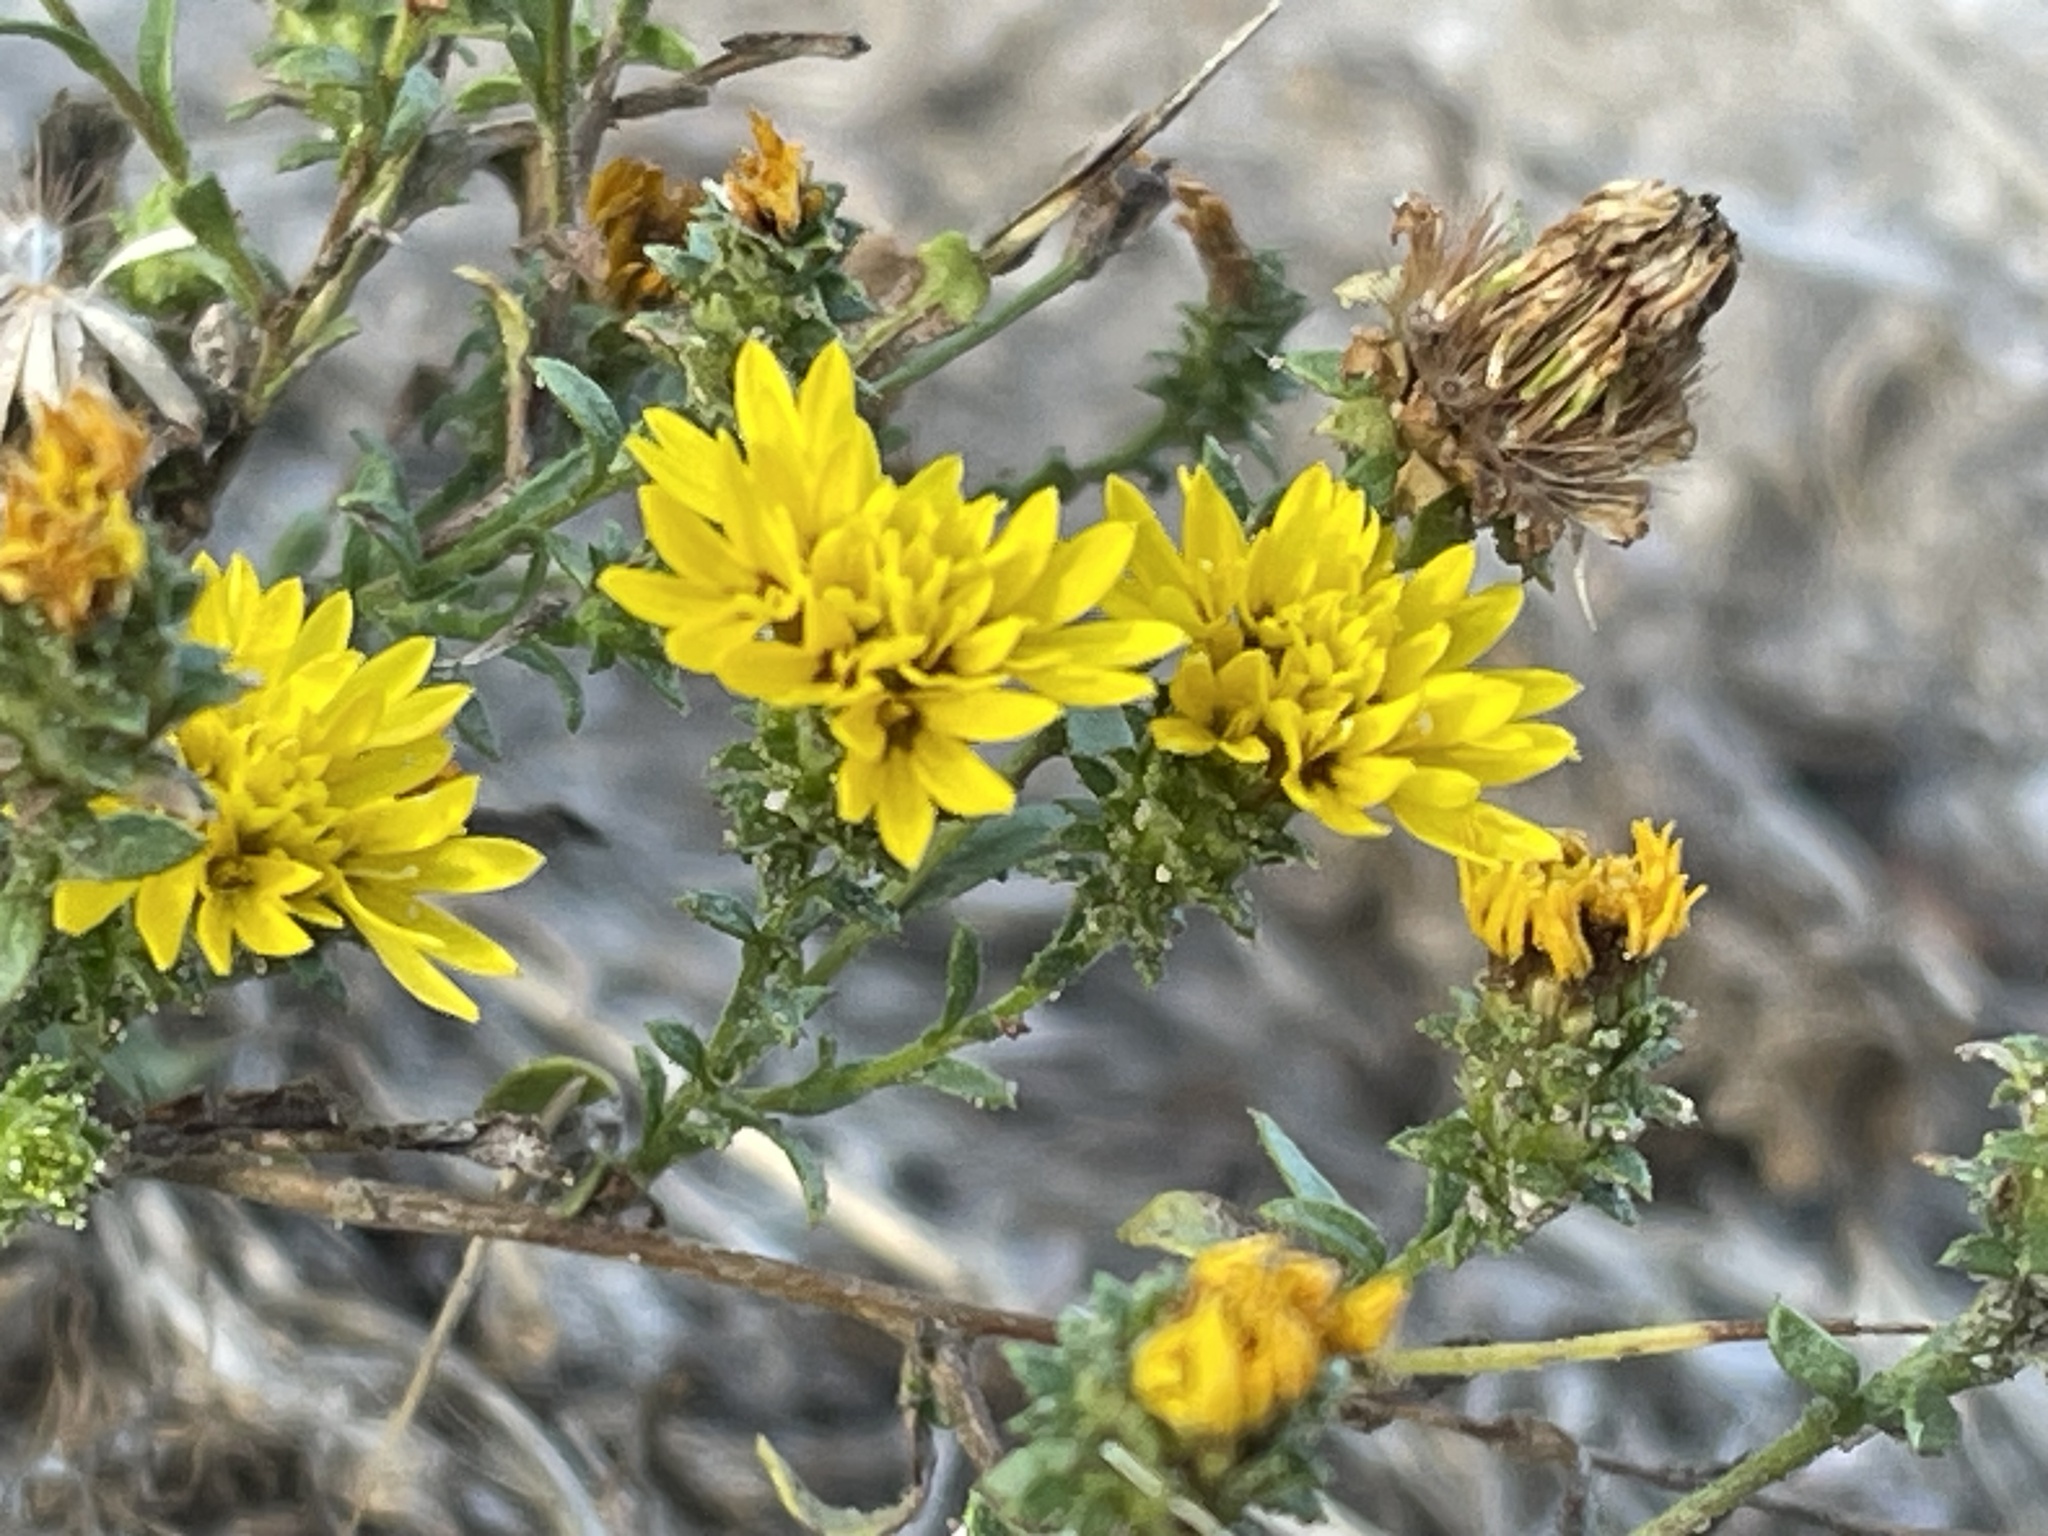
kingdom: Plantae
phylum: Tracheophyta
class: Magnoliopsida
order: Asterales
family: Asteraceae
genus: Lessingia
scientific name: Lessingia pectinata
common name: Valley lessingia
